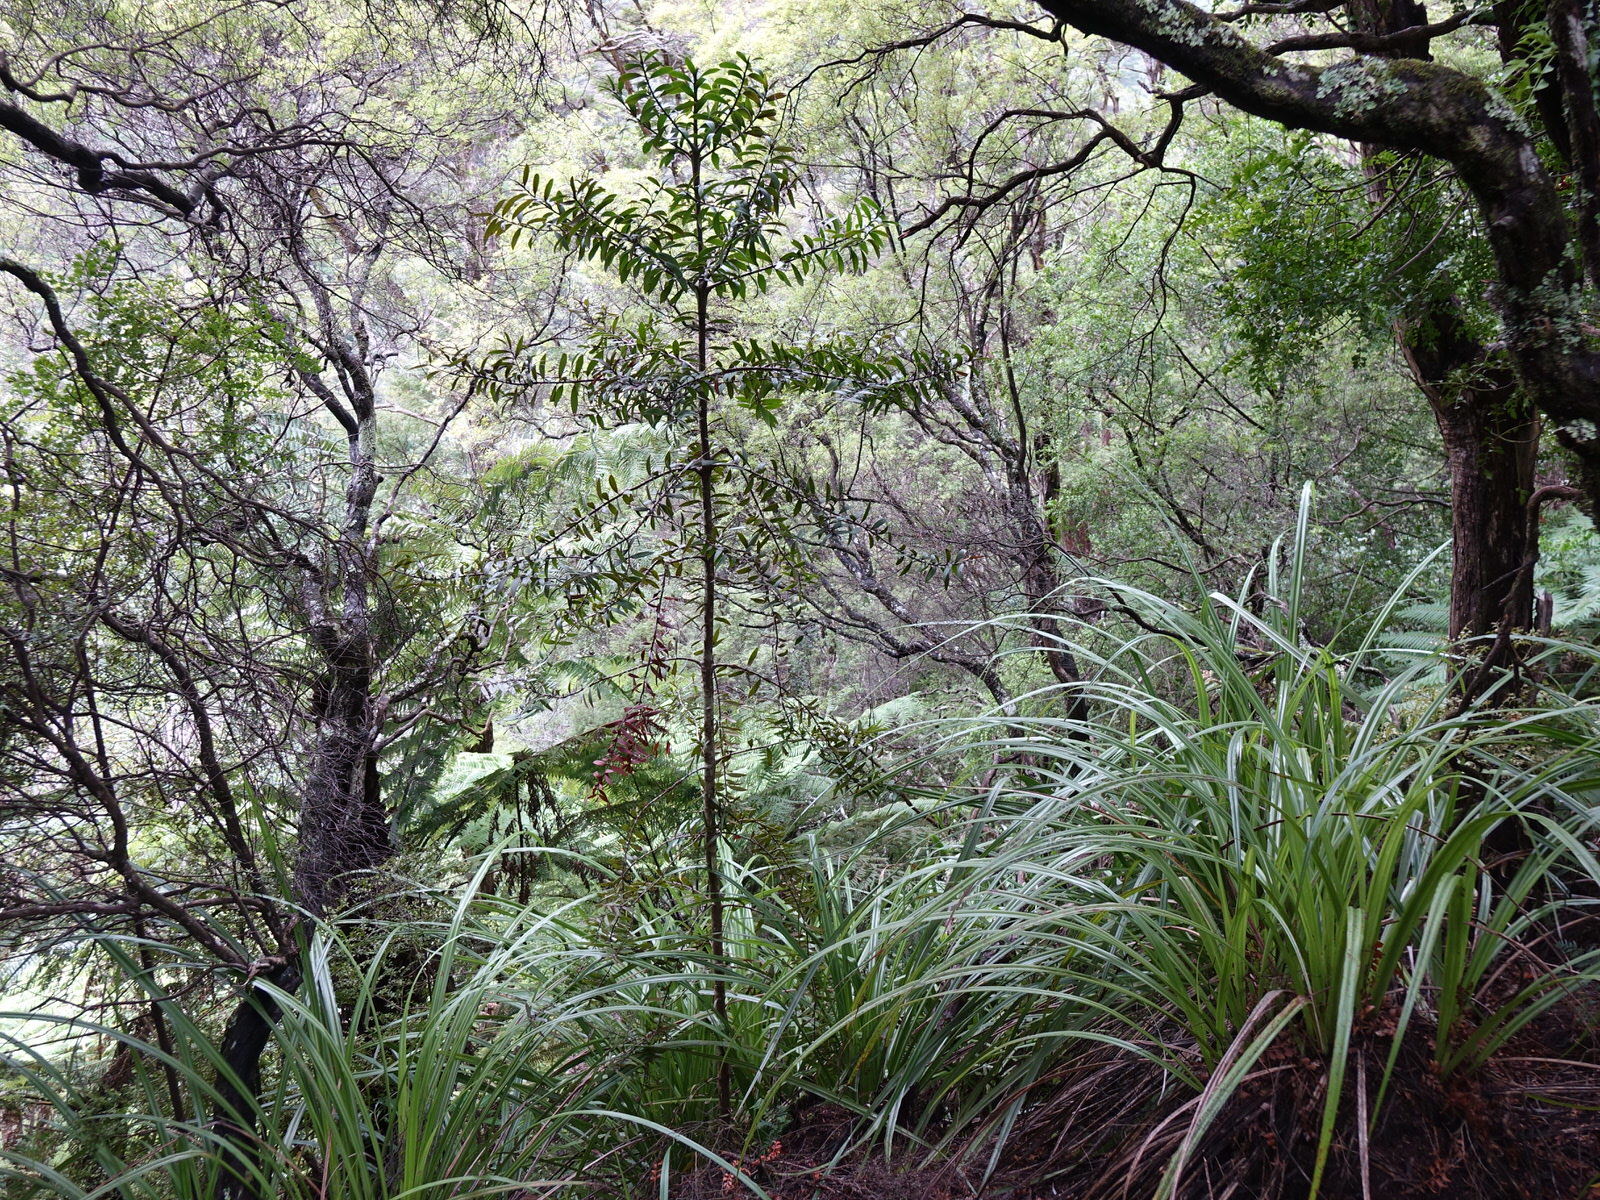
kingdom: Plantae
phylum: Tracheophyta
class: Pinopsida
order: Pinales
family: Araucariaceae
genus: Agathis
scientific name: Agathis australis
